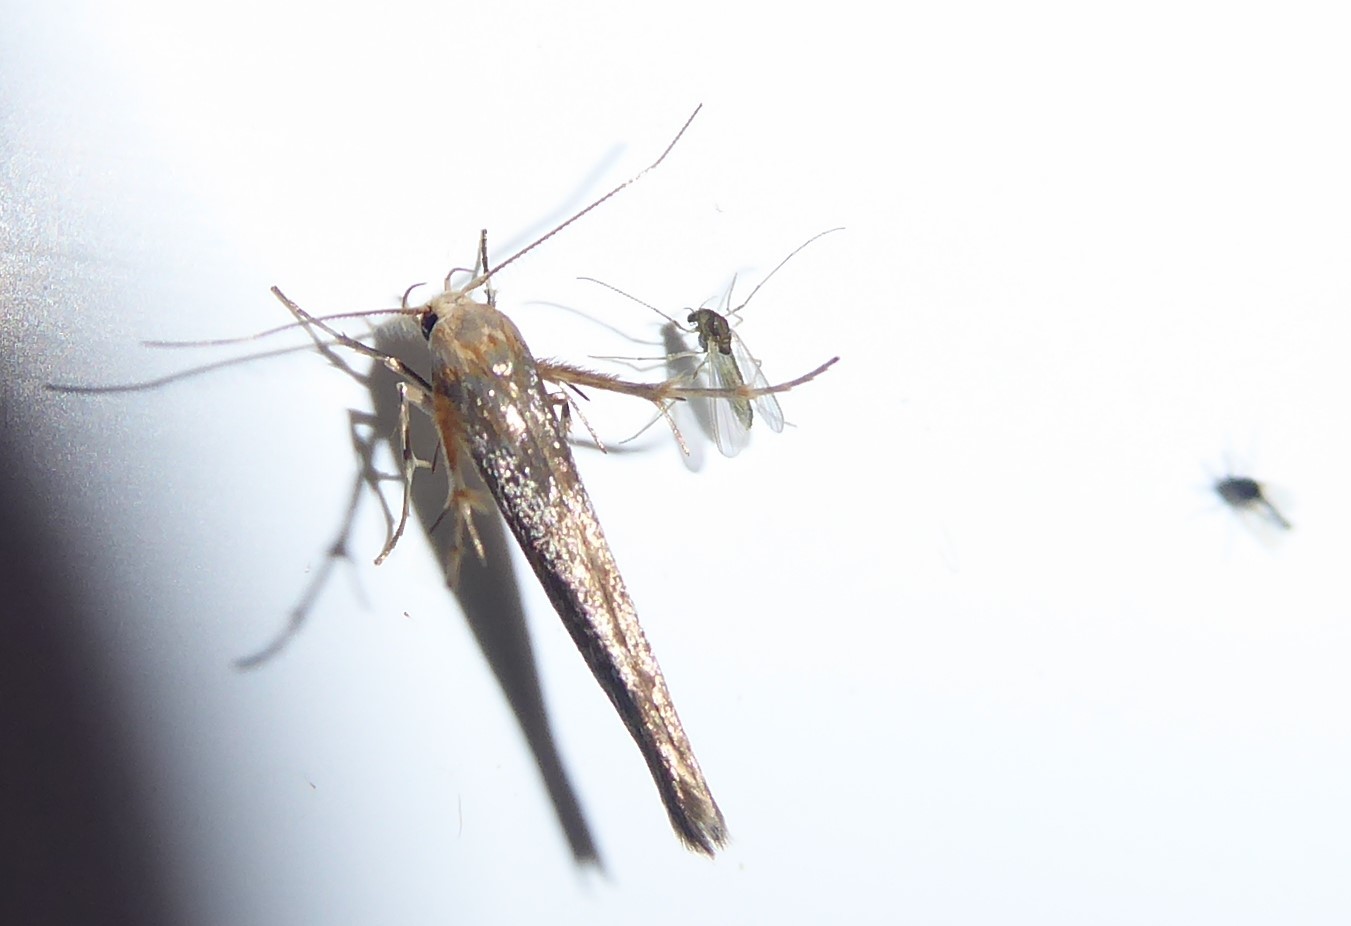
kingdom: Animalia
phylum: Arthropoda
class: Insecta
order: Lepidoptera
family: Stathmopodidae
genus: Stathmopoda
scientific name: Stathmopoda aposema
